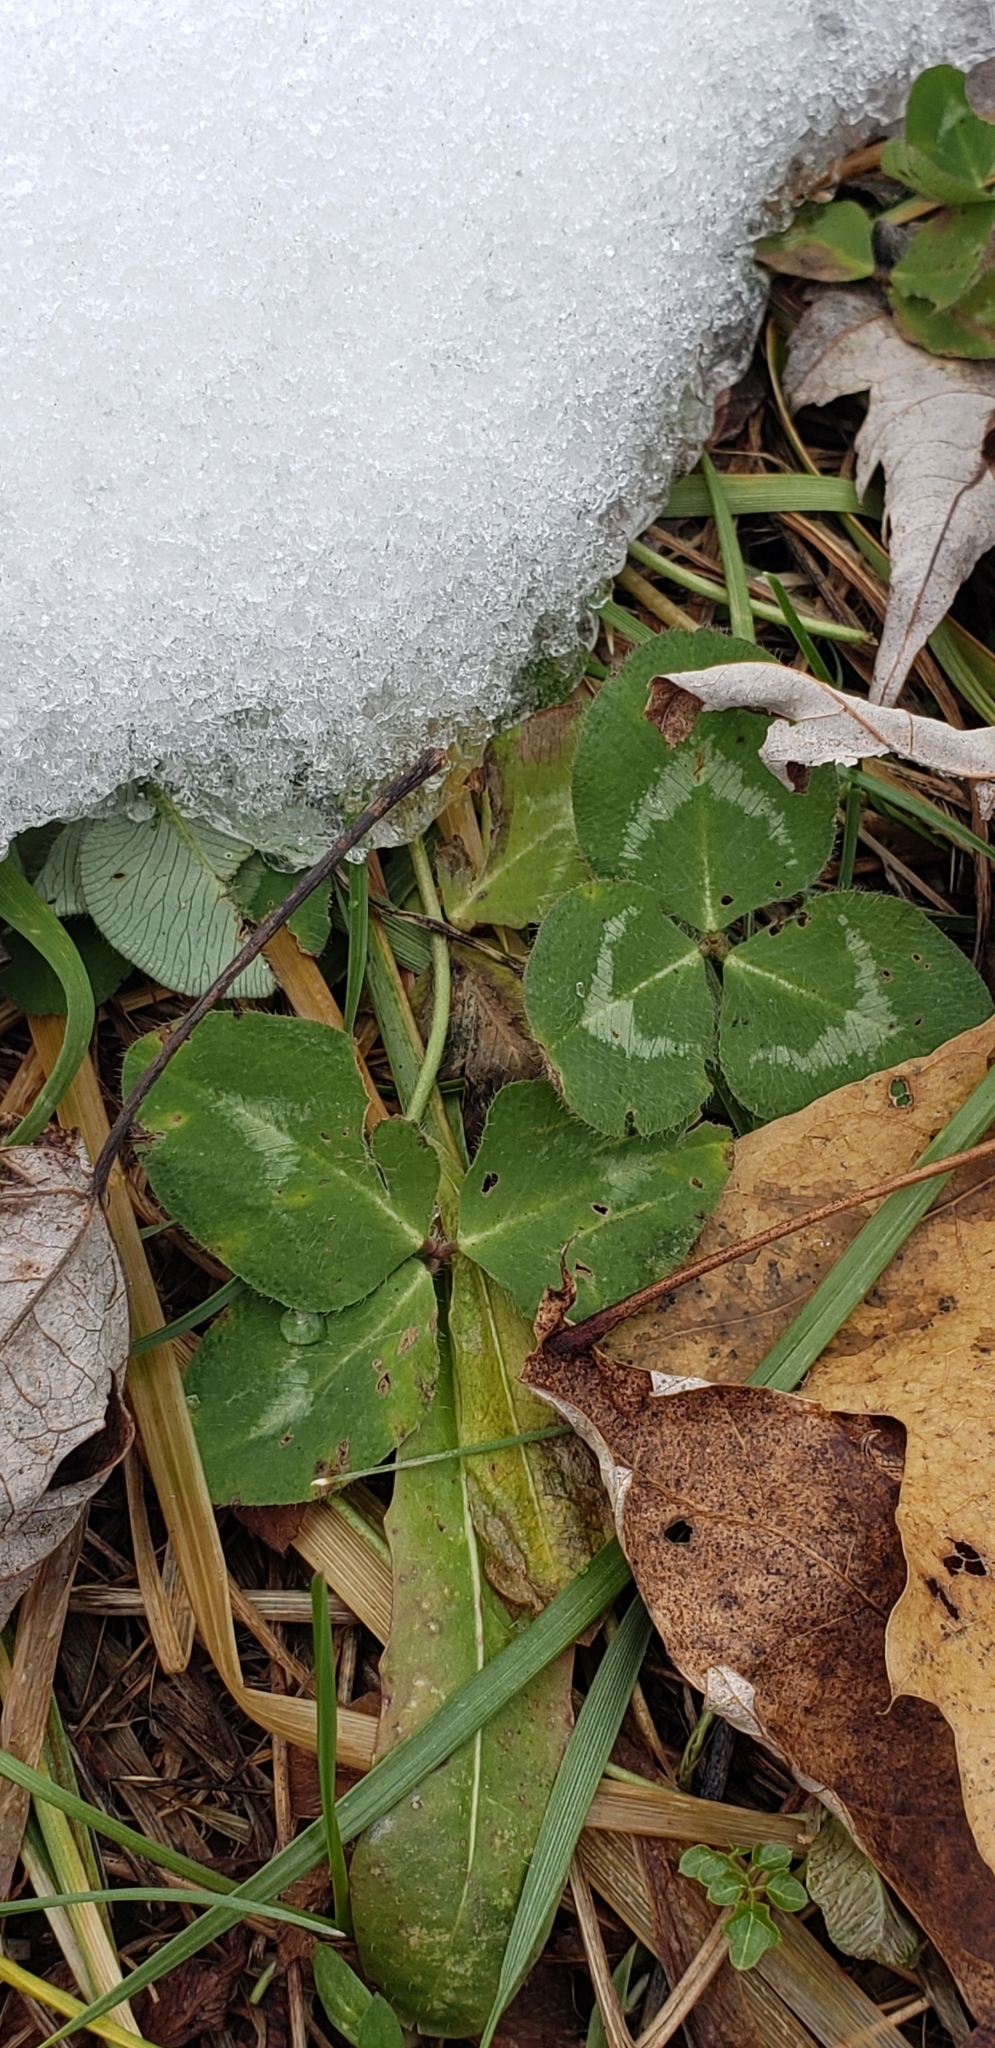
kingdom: Plantae
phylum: Tracheophyta
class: Magnoliopsida
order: Fabales
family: Fabaceae
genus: Trifolium
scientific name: Trifolium pratense
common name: Red clover
